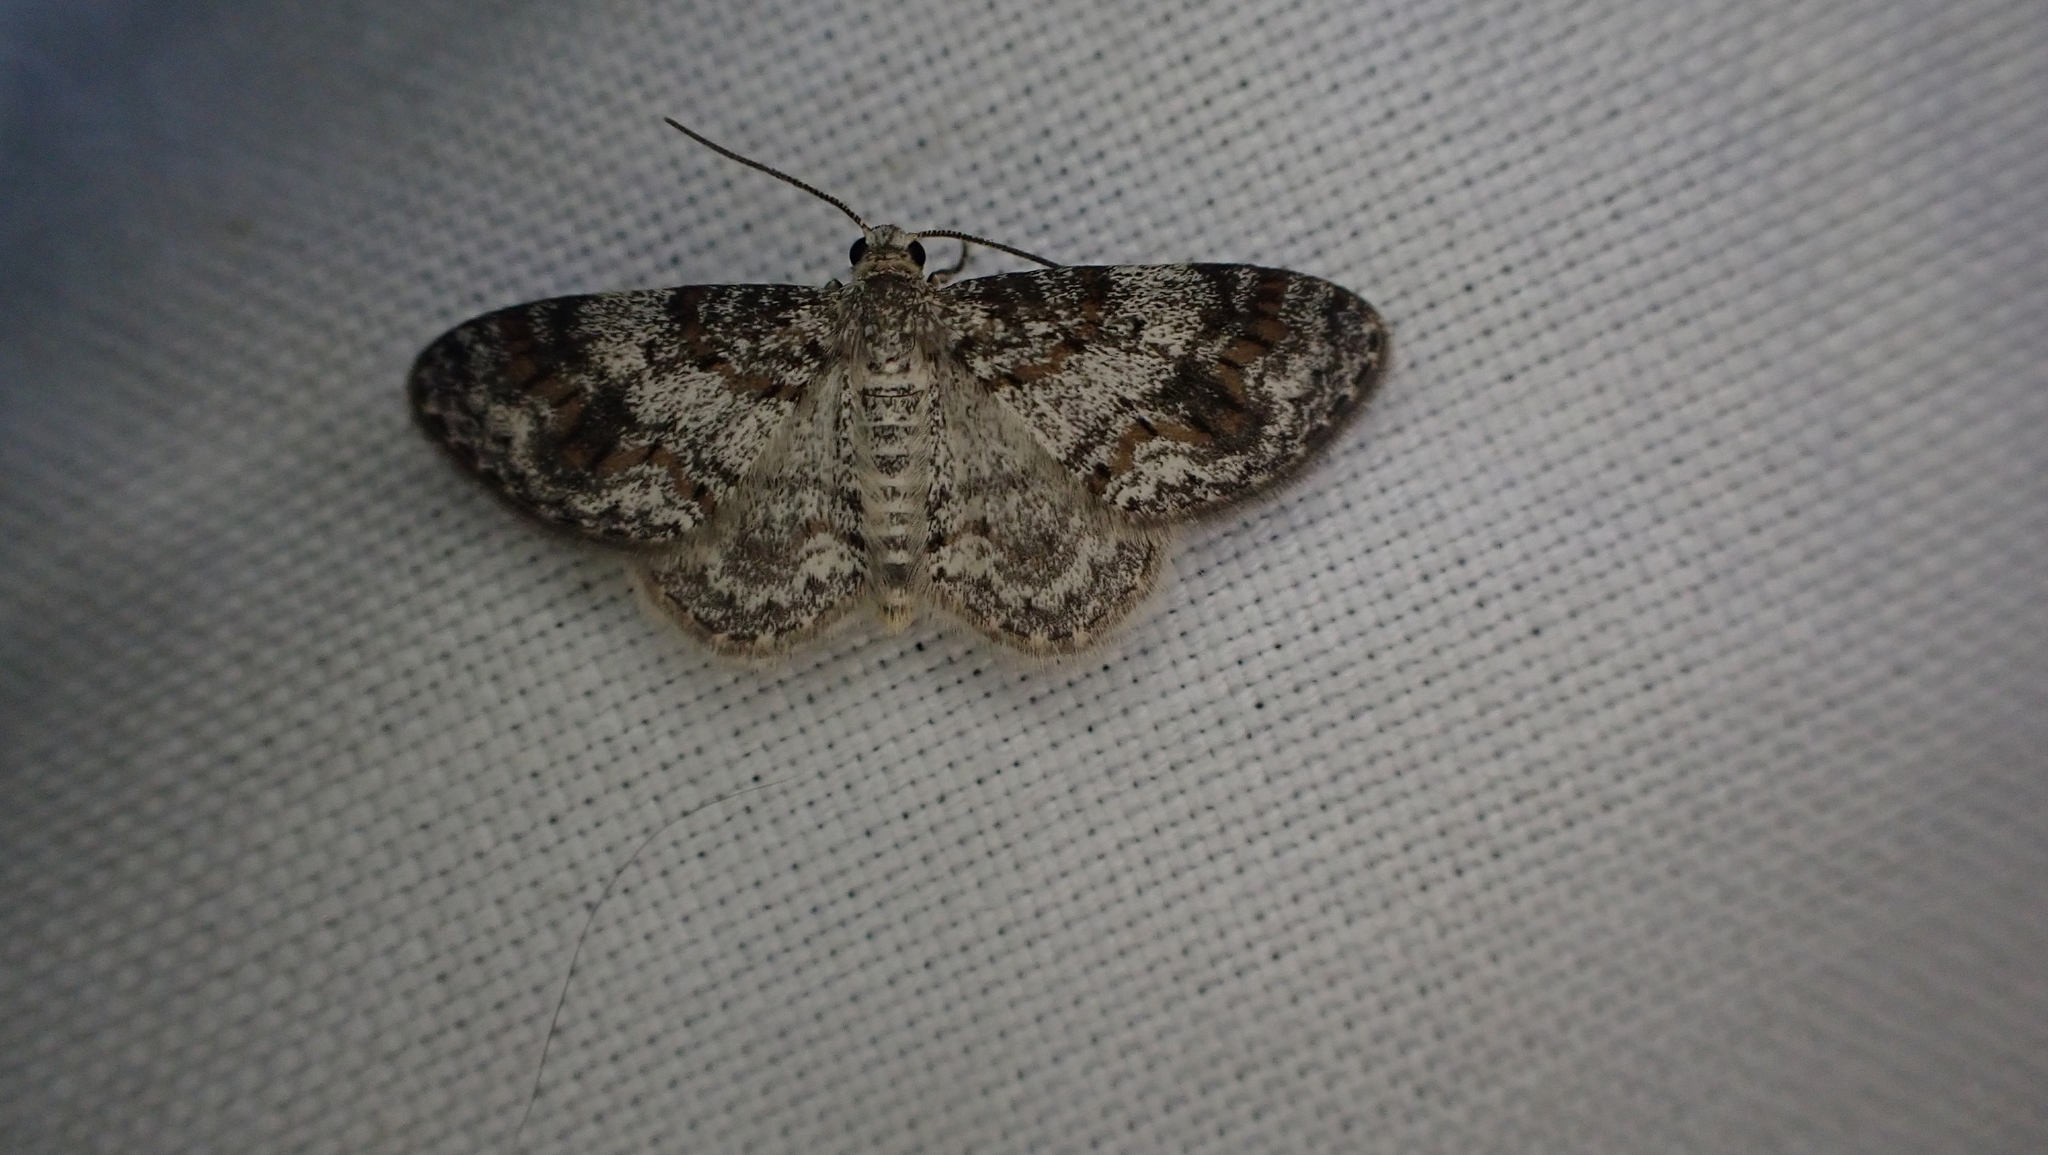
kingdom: Animalia
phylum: Arthropoda
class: Insecta
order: Lepidoptera
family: Geometridae
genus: Hydrelia
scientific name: Hydrelia inornata
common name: Unadorned carpet moth
